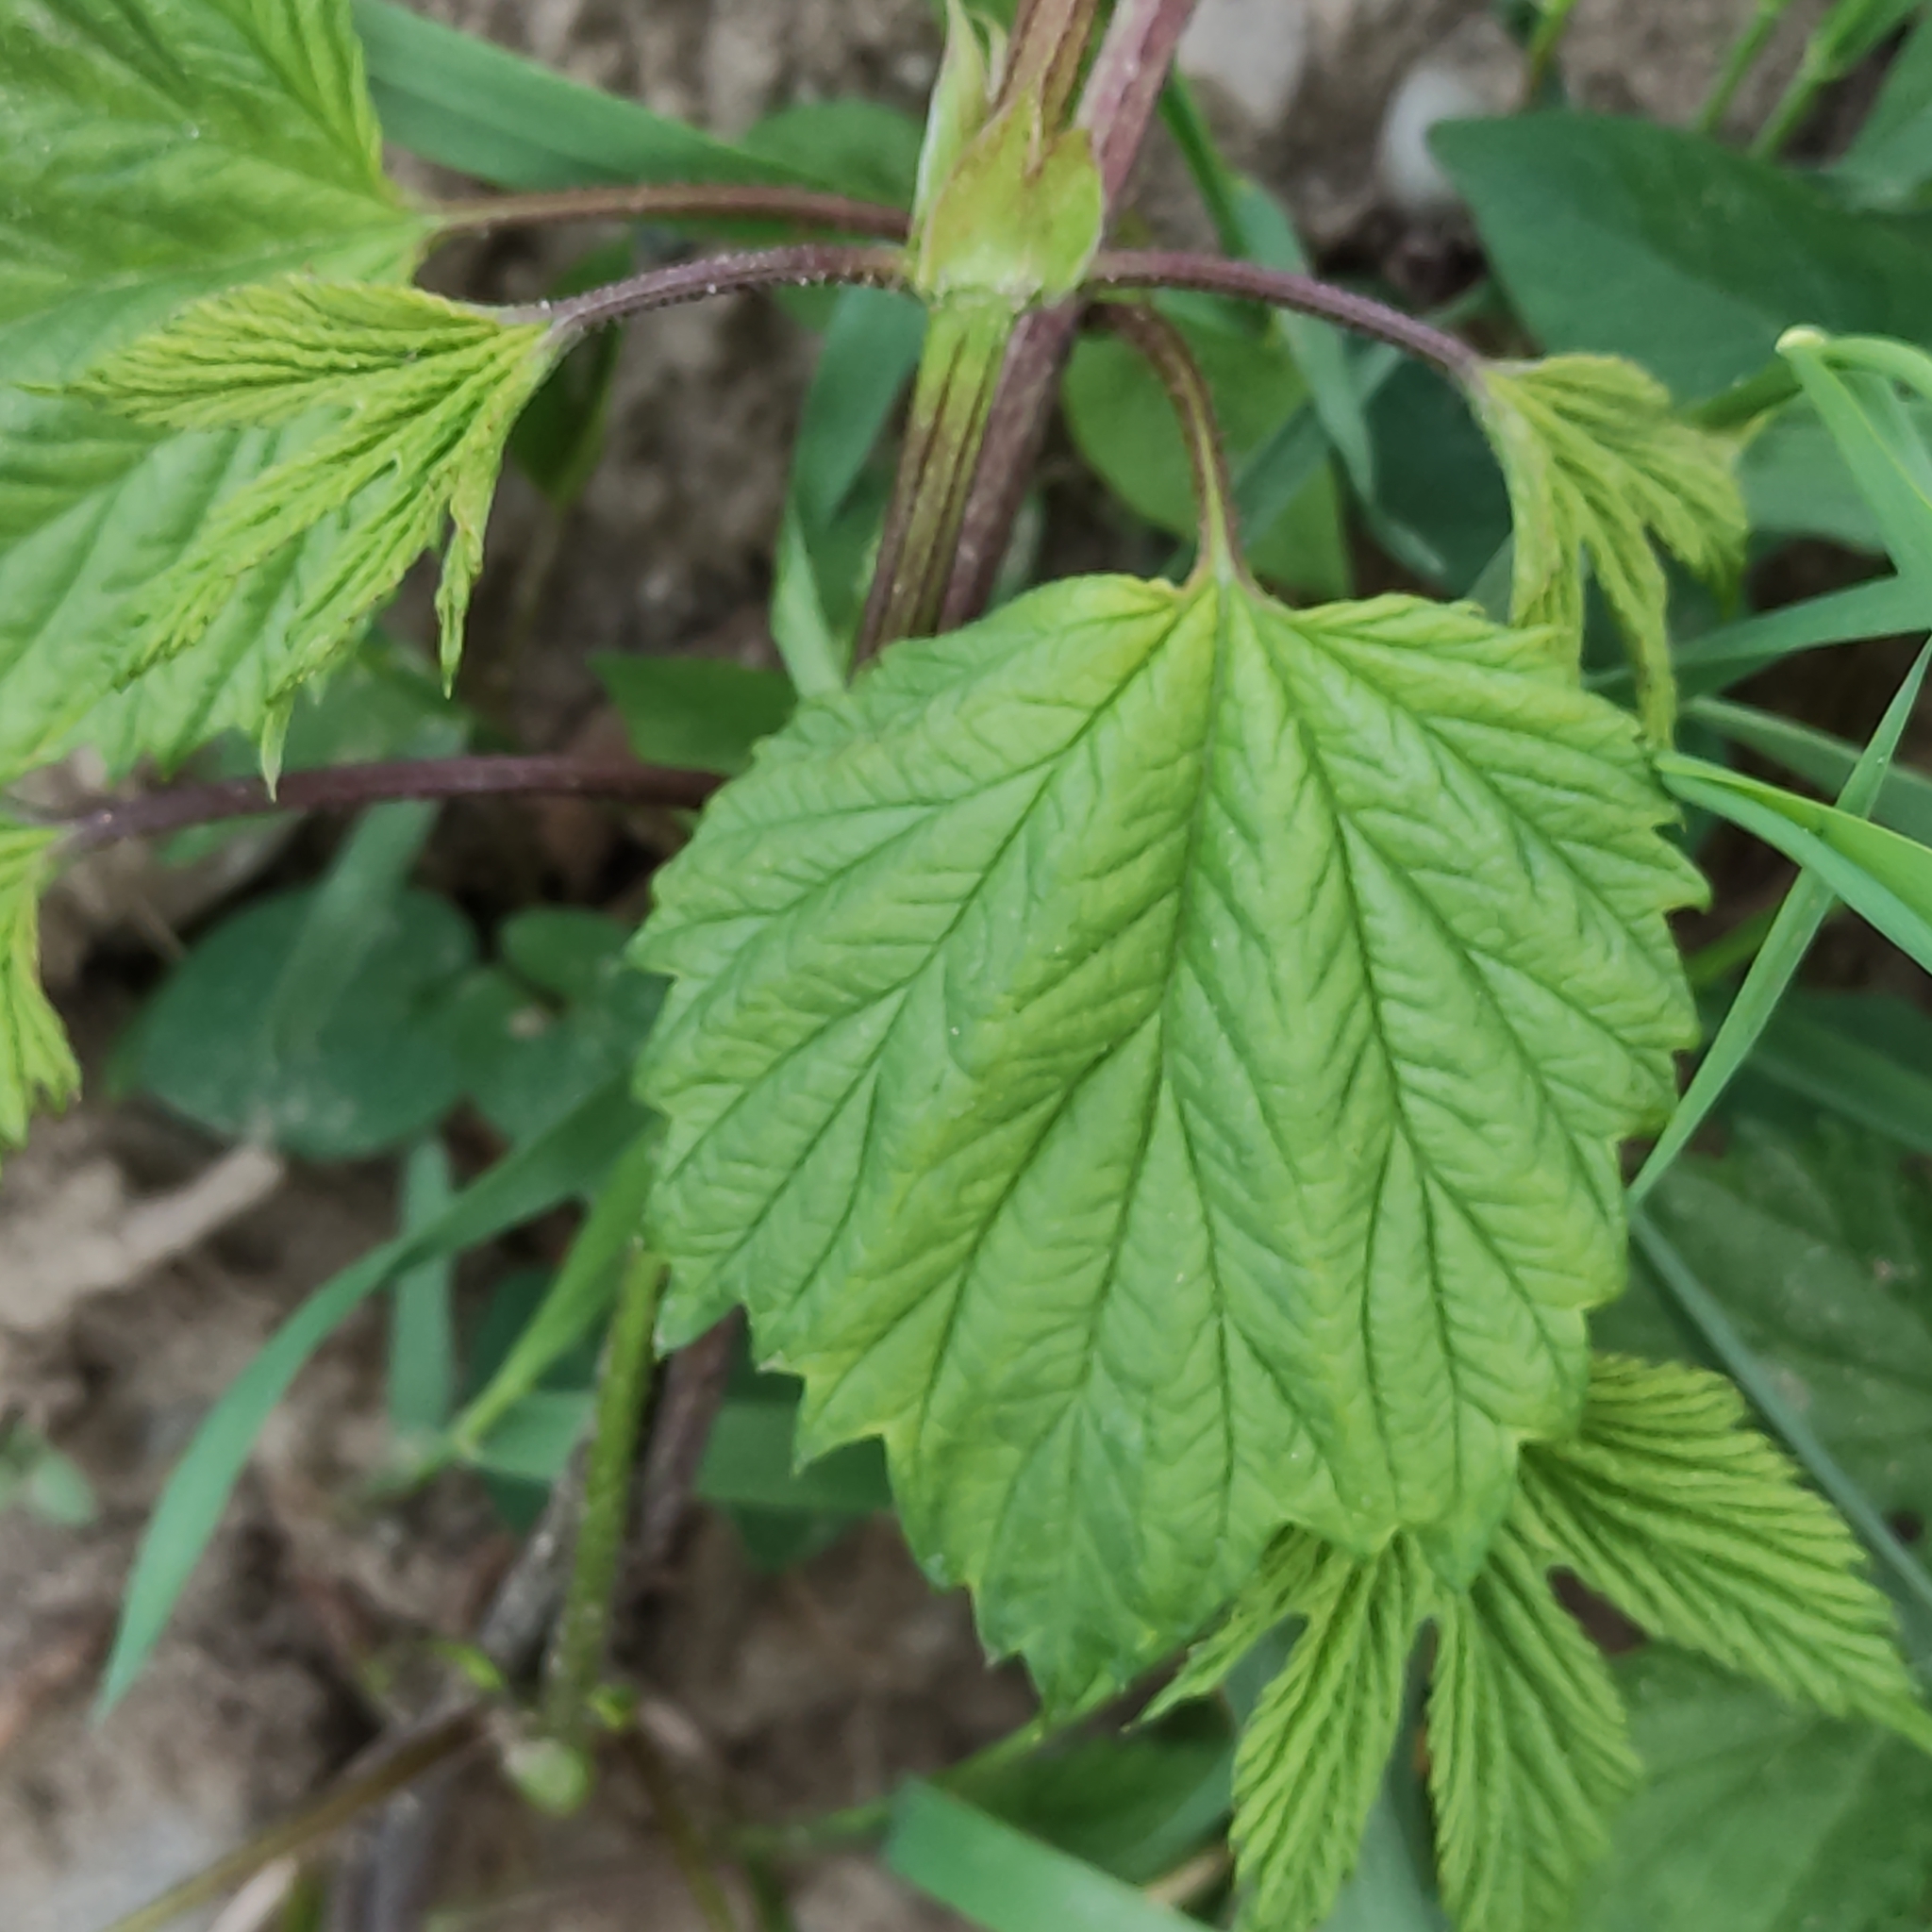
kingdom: Plantae
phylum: Tracheophyta
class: Magnoliopsida
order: Rosales
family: Cannabaceae
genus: Humulus
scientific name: Humulus lupulus
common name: Hop
